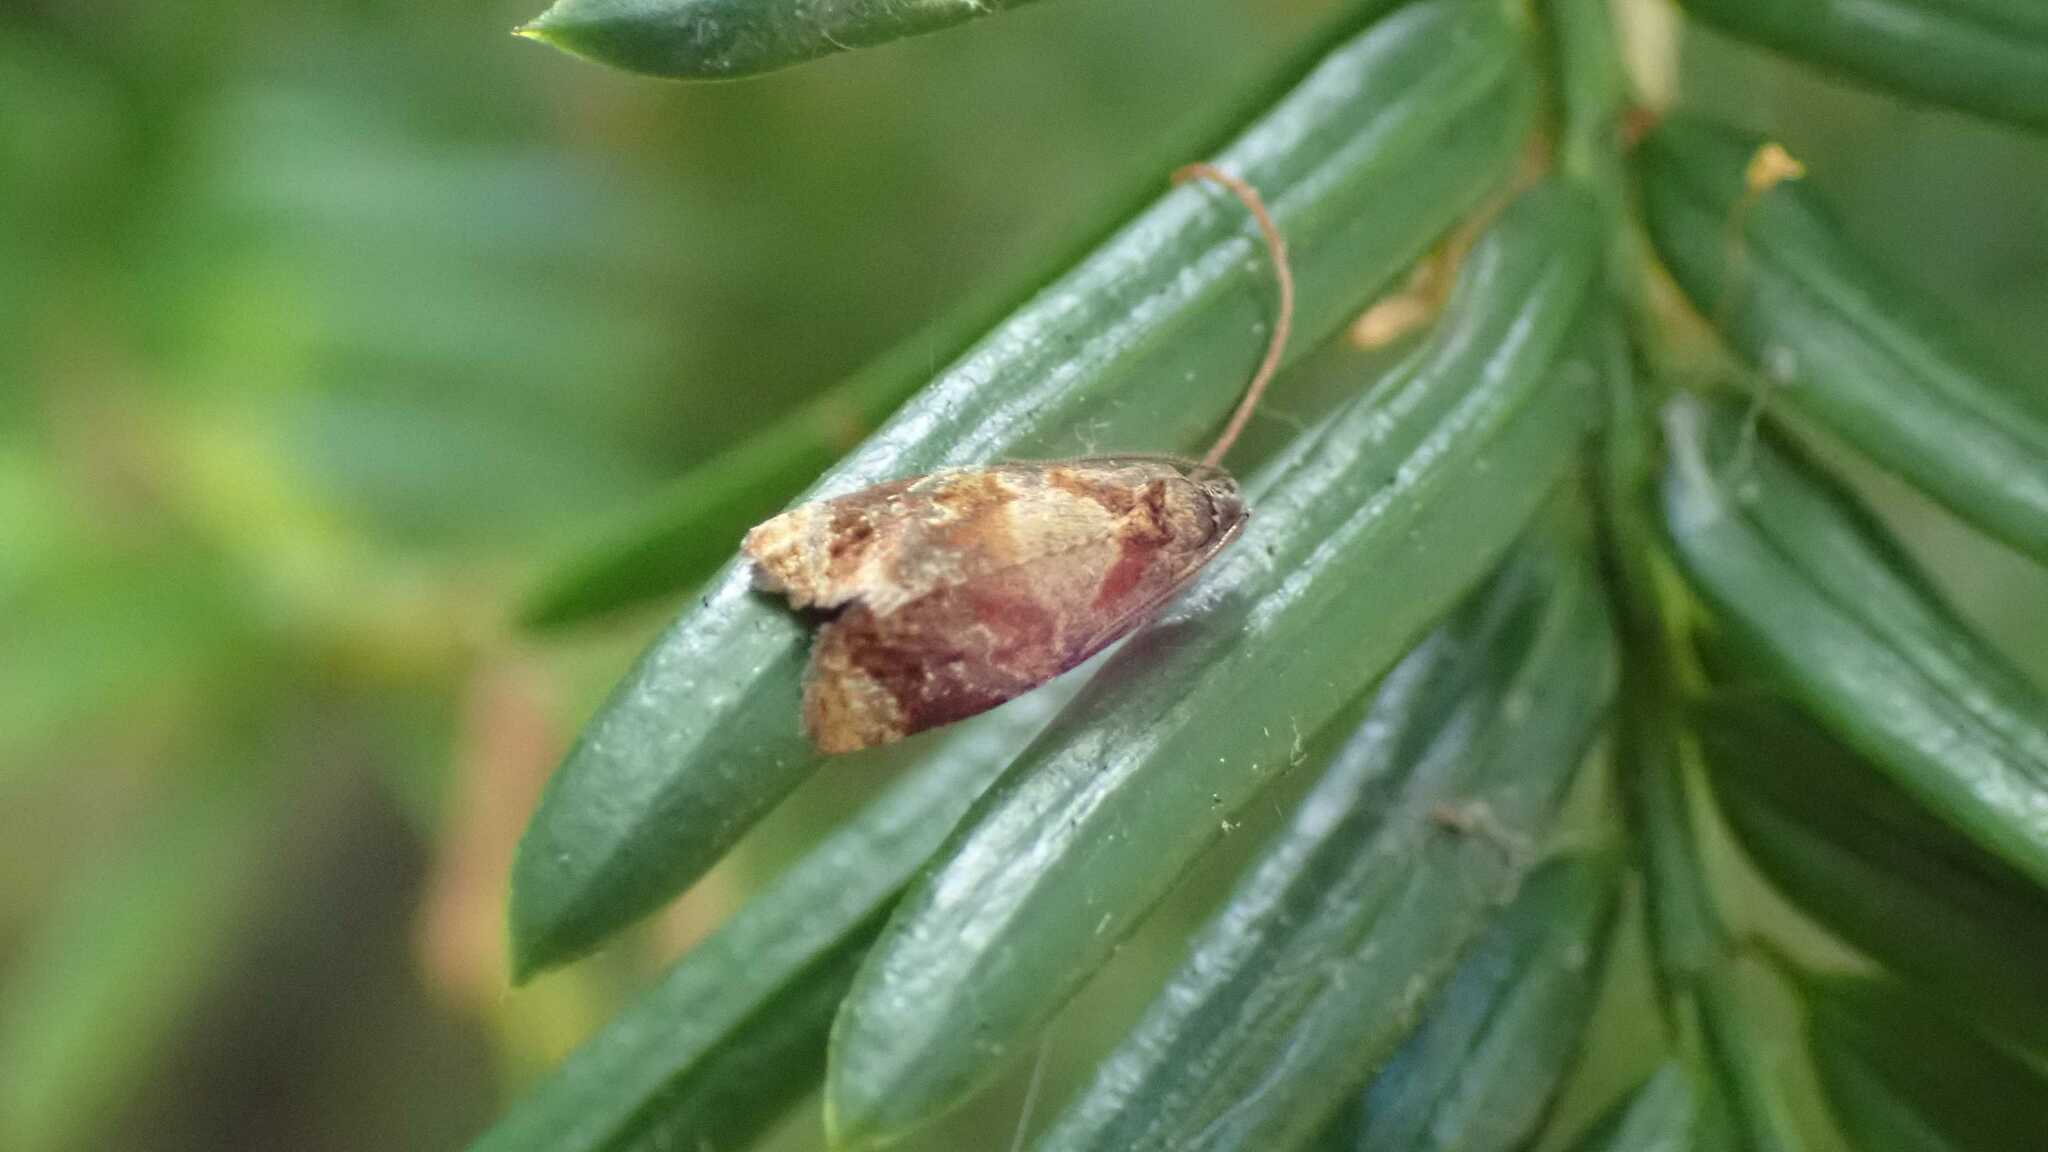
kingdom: Animalia
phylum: Arthropoda
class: Insecta
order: Lepidoptera
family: Tortricidae
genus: Ditula
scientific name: Ditula angustiorana
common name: Red-barred tortrix
